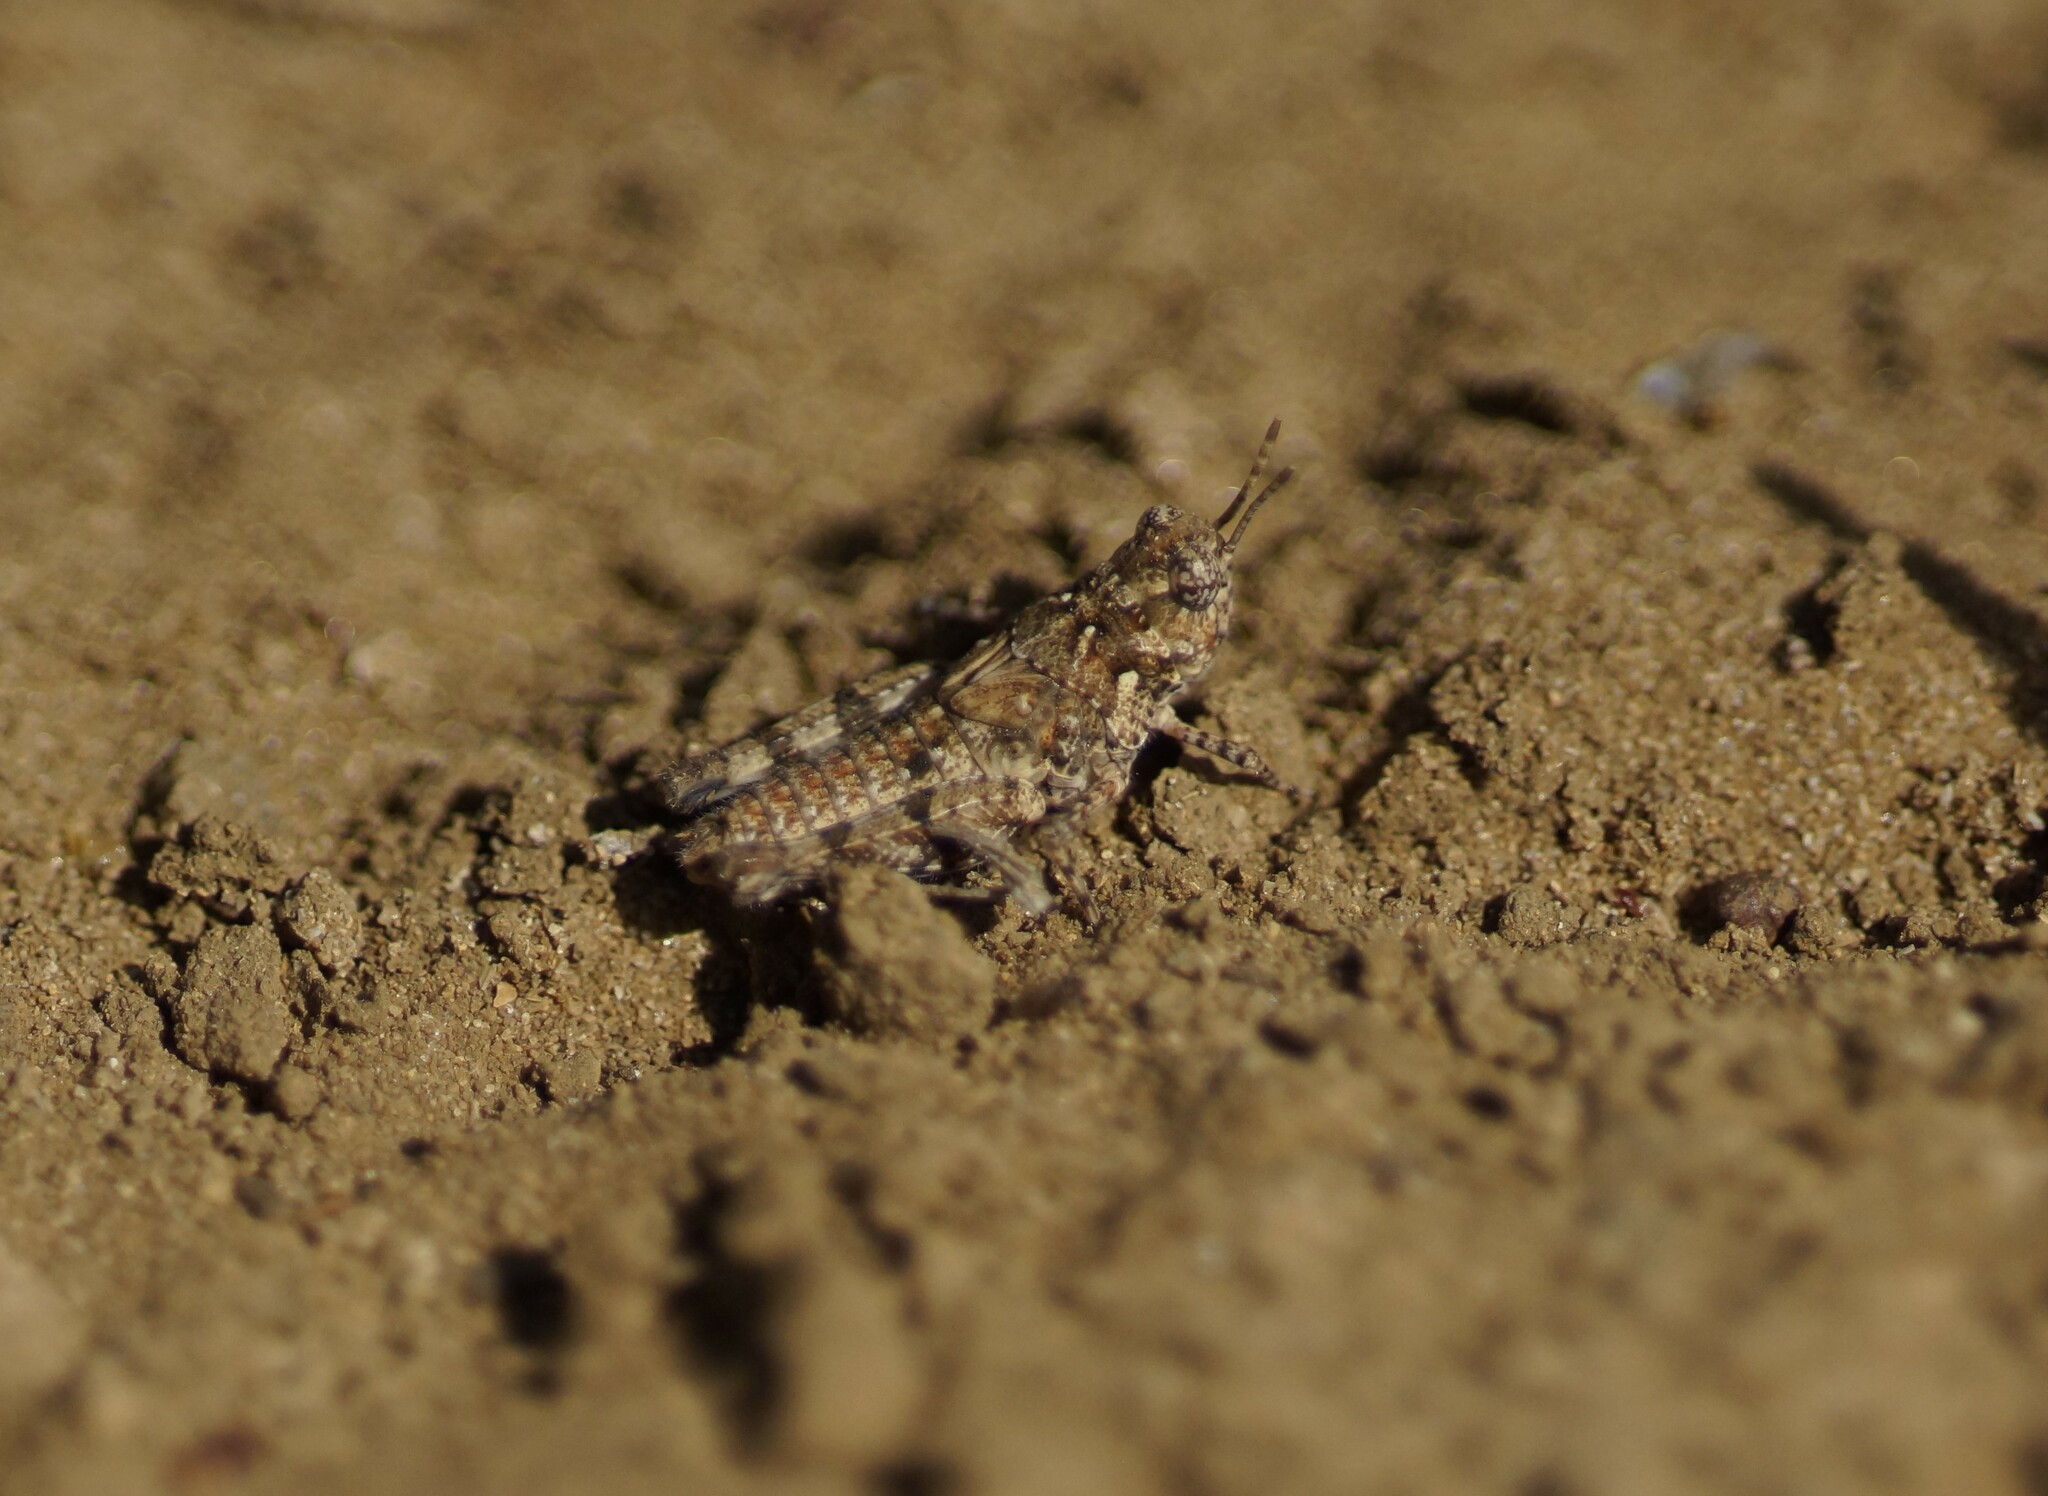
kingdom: Animalia
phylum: Arthropoda
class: Insecta
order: Orthoptera
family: Acrididae
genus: Pycnostictus
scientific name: Pycnostictus seriatus
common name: Common bandwing
